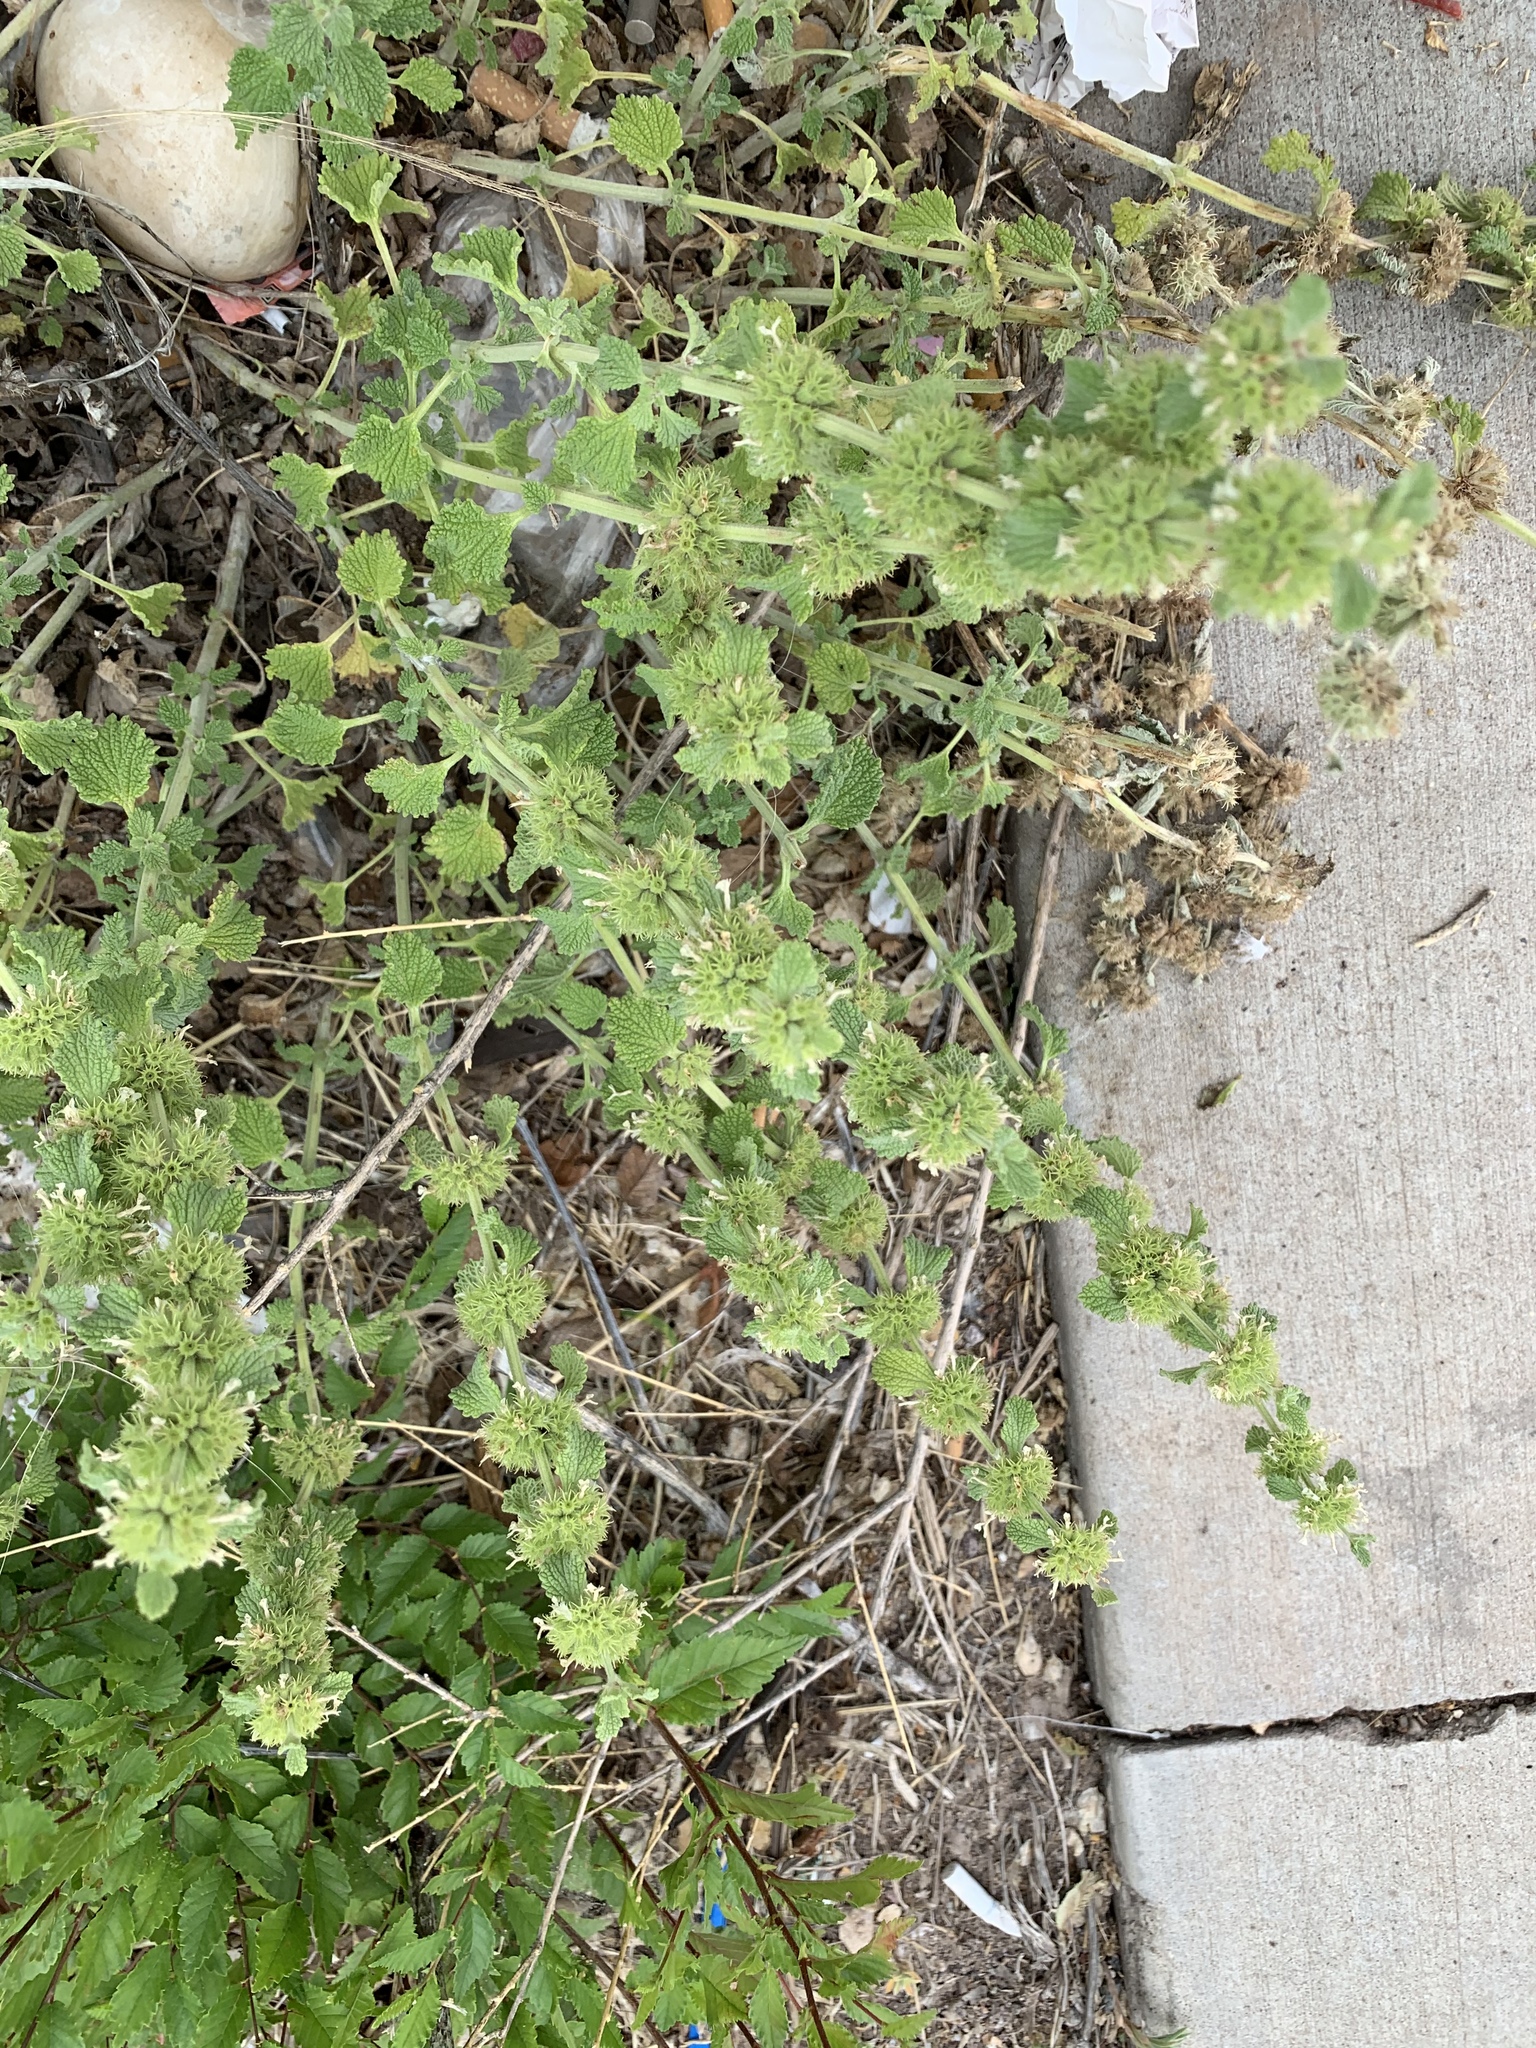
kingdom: Plantae
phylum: Tracheophyta
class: Magnoliopsida
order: Lamiales
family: Lamiaceae
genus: Marrubium
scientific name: Marrubium vulgare
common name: Horehound
